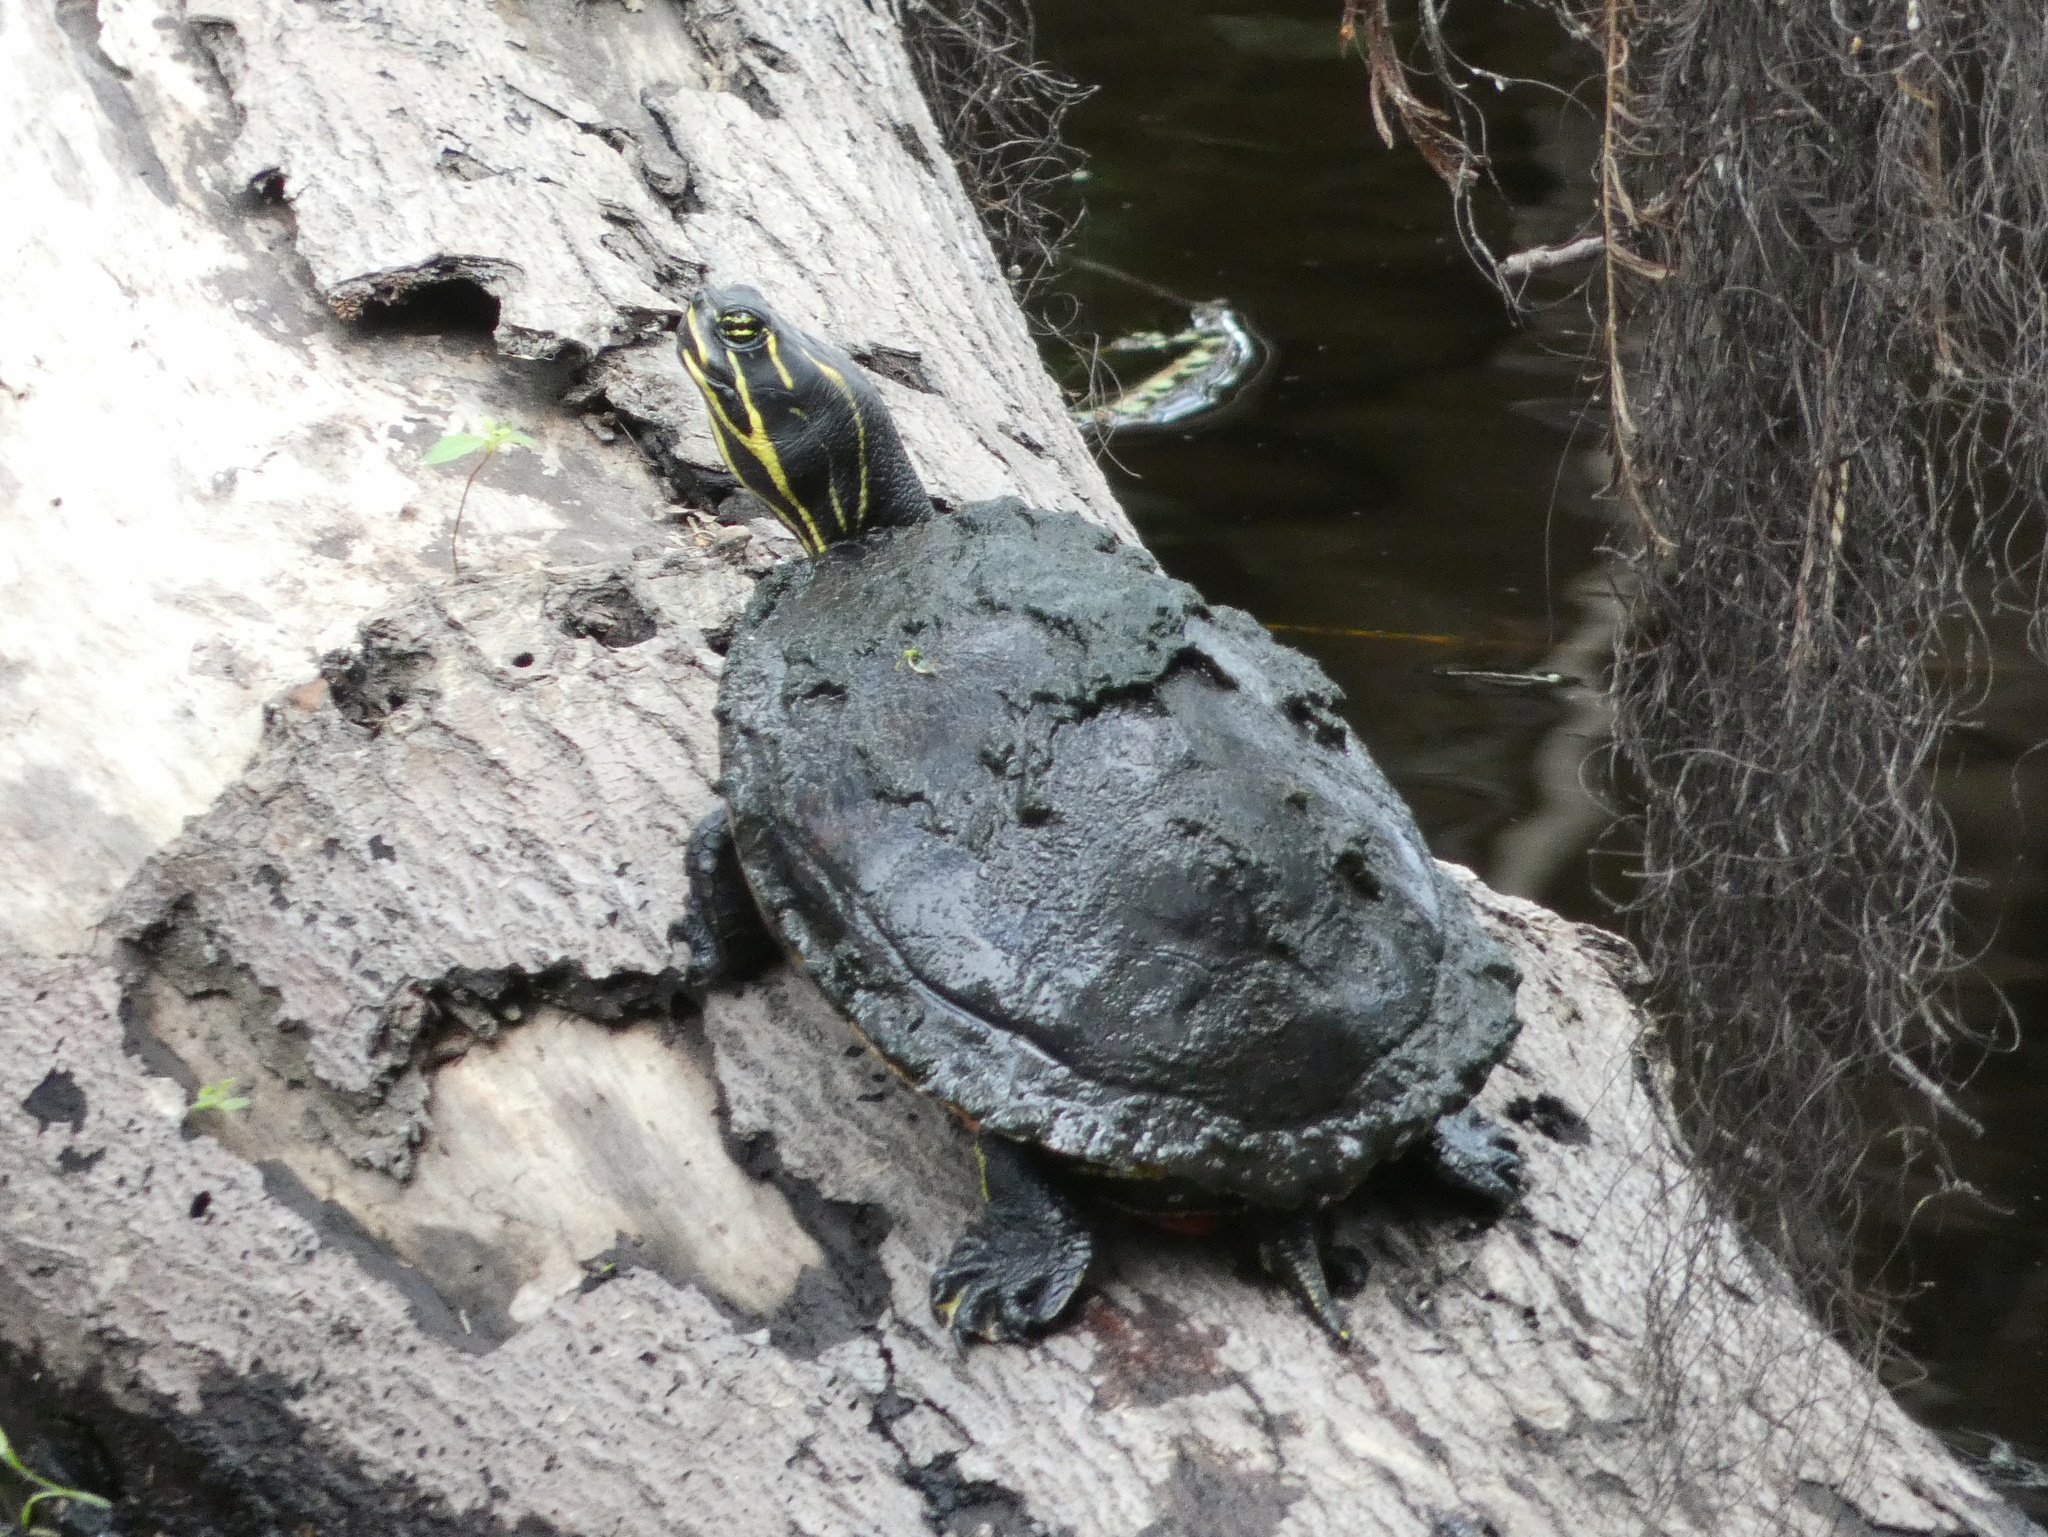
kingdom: Animalia
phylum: Chordata
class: Testudines
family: Emydidae
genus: Pseudemys
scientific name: Pseudemys nelsoni
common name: Florida red-bellied turtle
